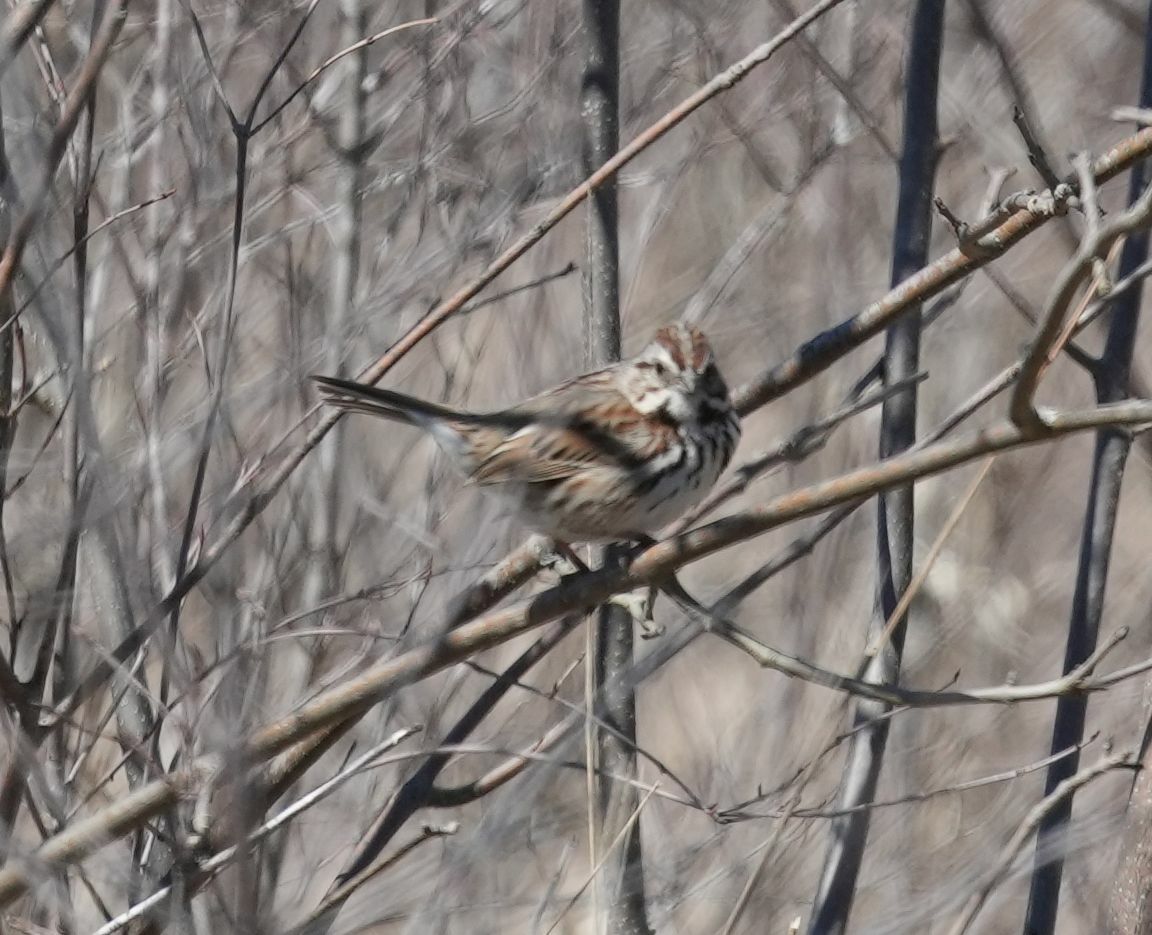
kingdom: Animalia
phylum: Chordata
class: Aves
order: Passeriformes
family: Passerellidae
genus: Melospiza
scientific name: Melospiza melodia
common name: Song sparrow
